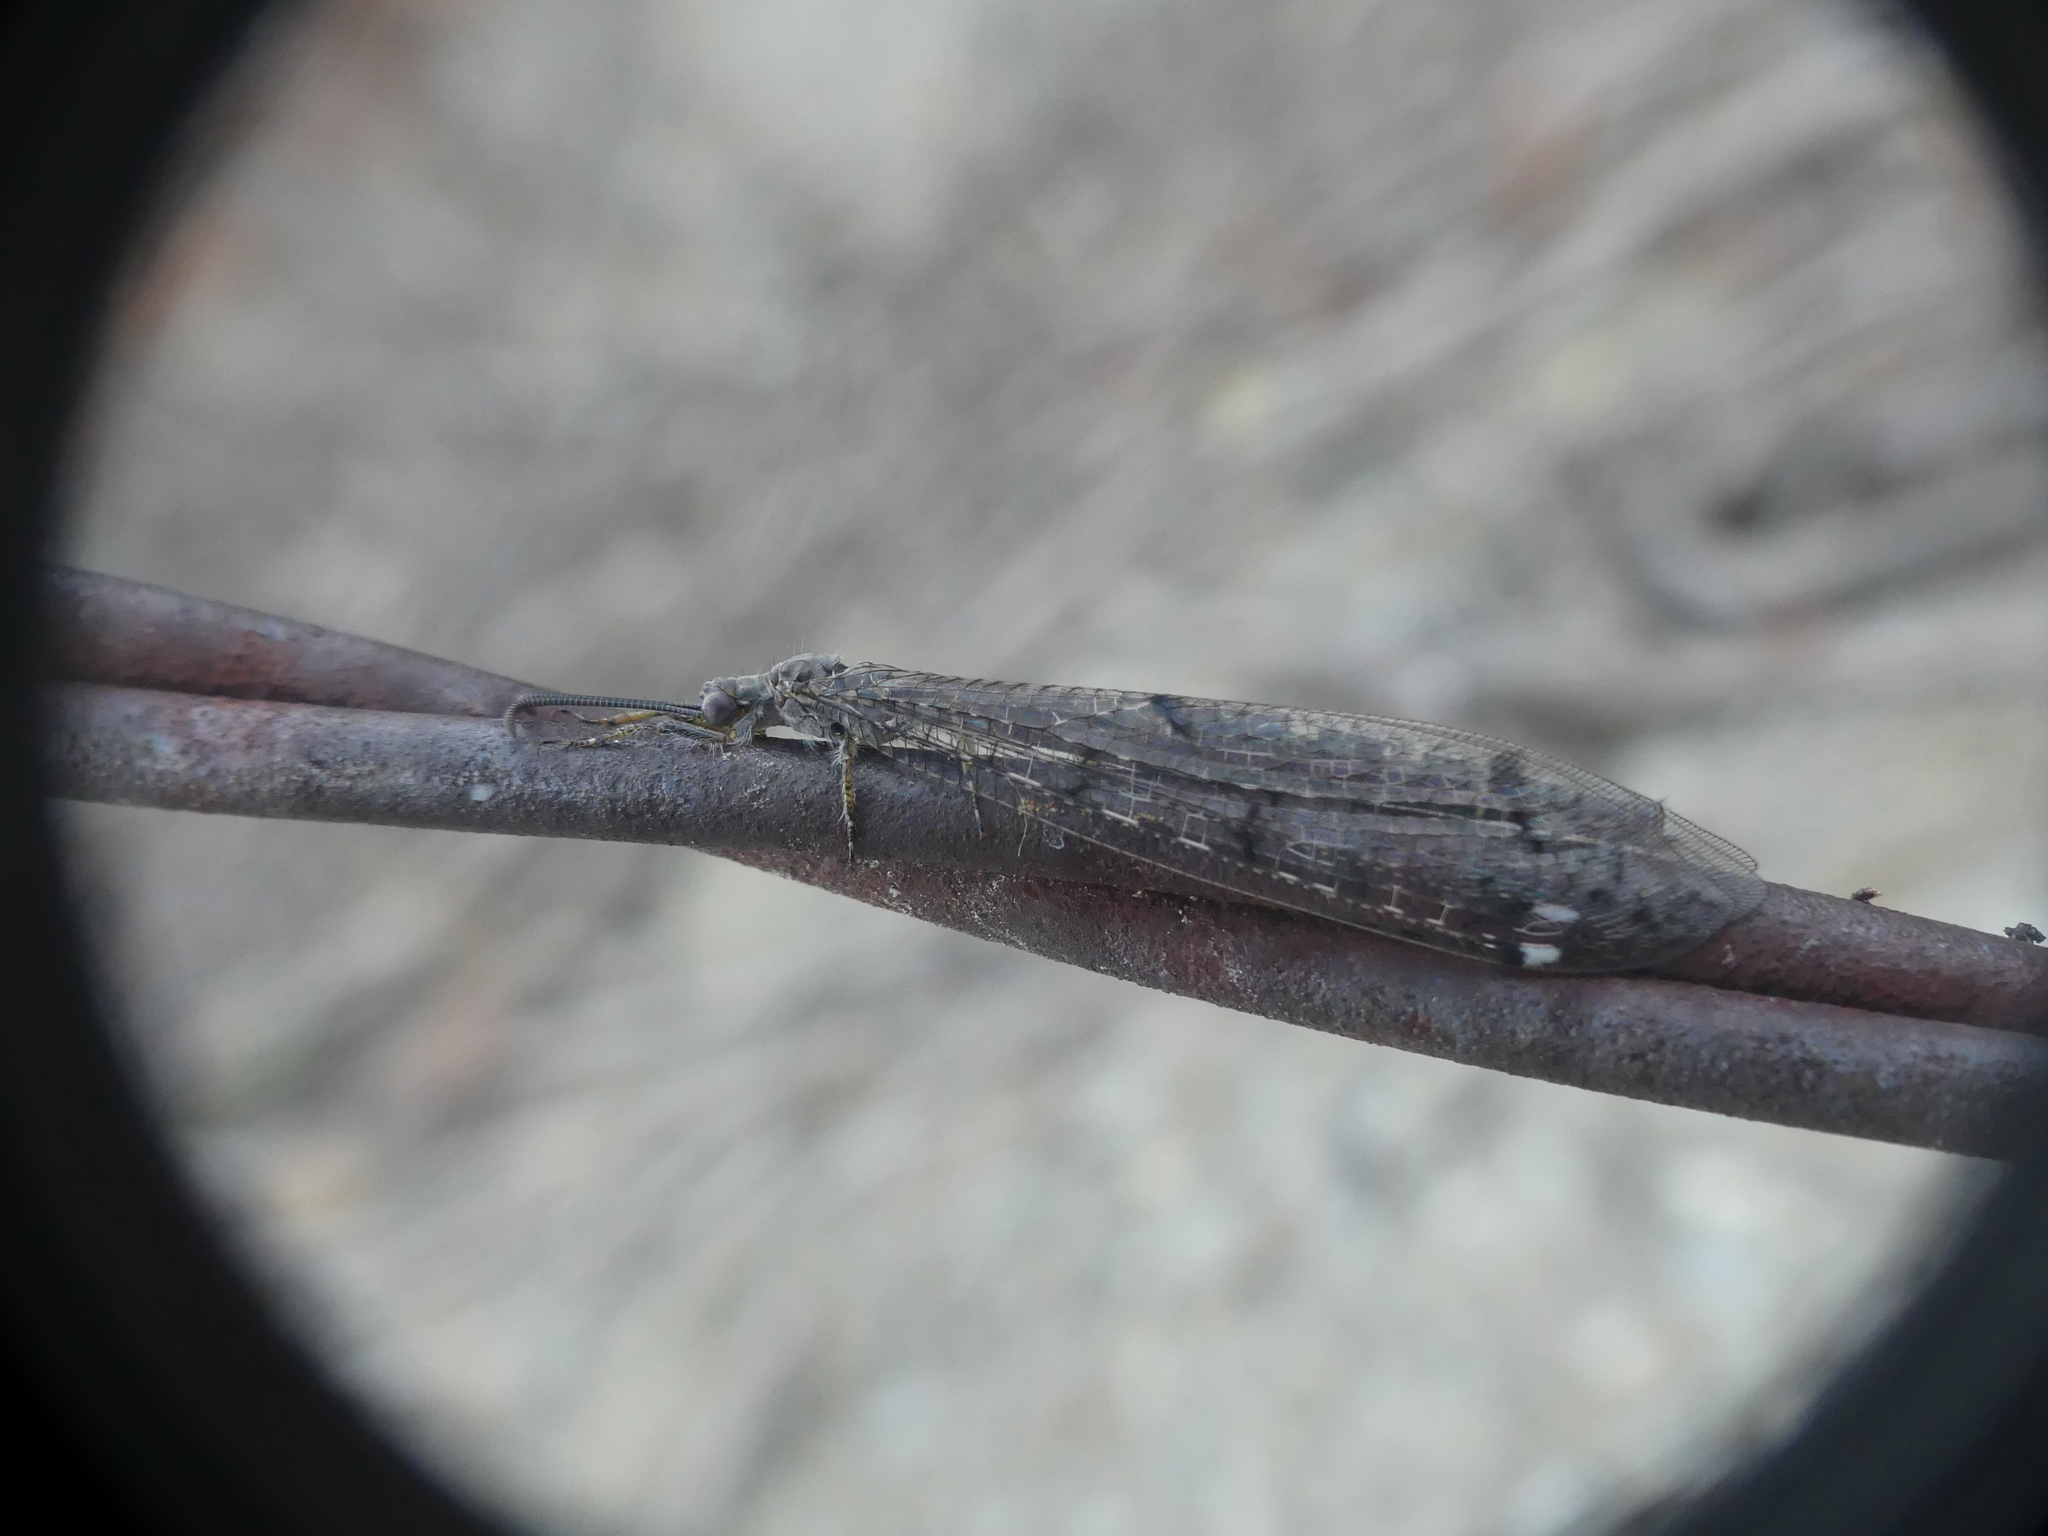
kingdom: Animalia
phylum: Arthropoda
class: Insecta
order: Neuroptera
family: Myrmeleontidae
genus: Distoleon
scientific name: Distoleon tetragrammicus
